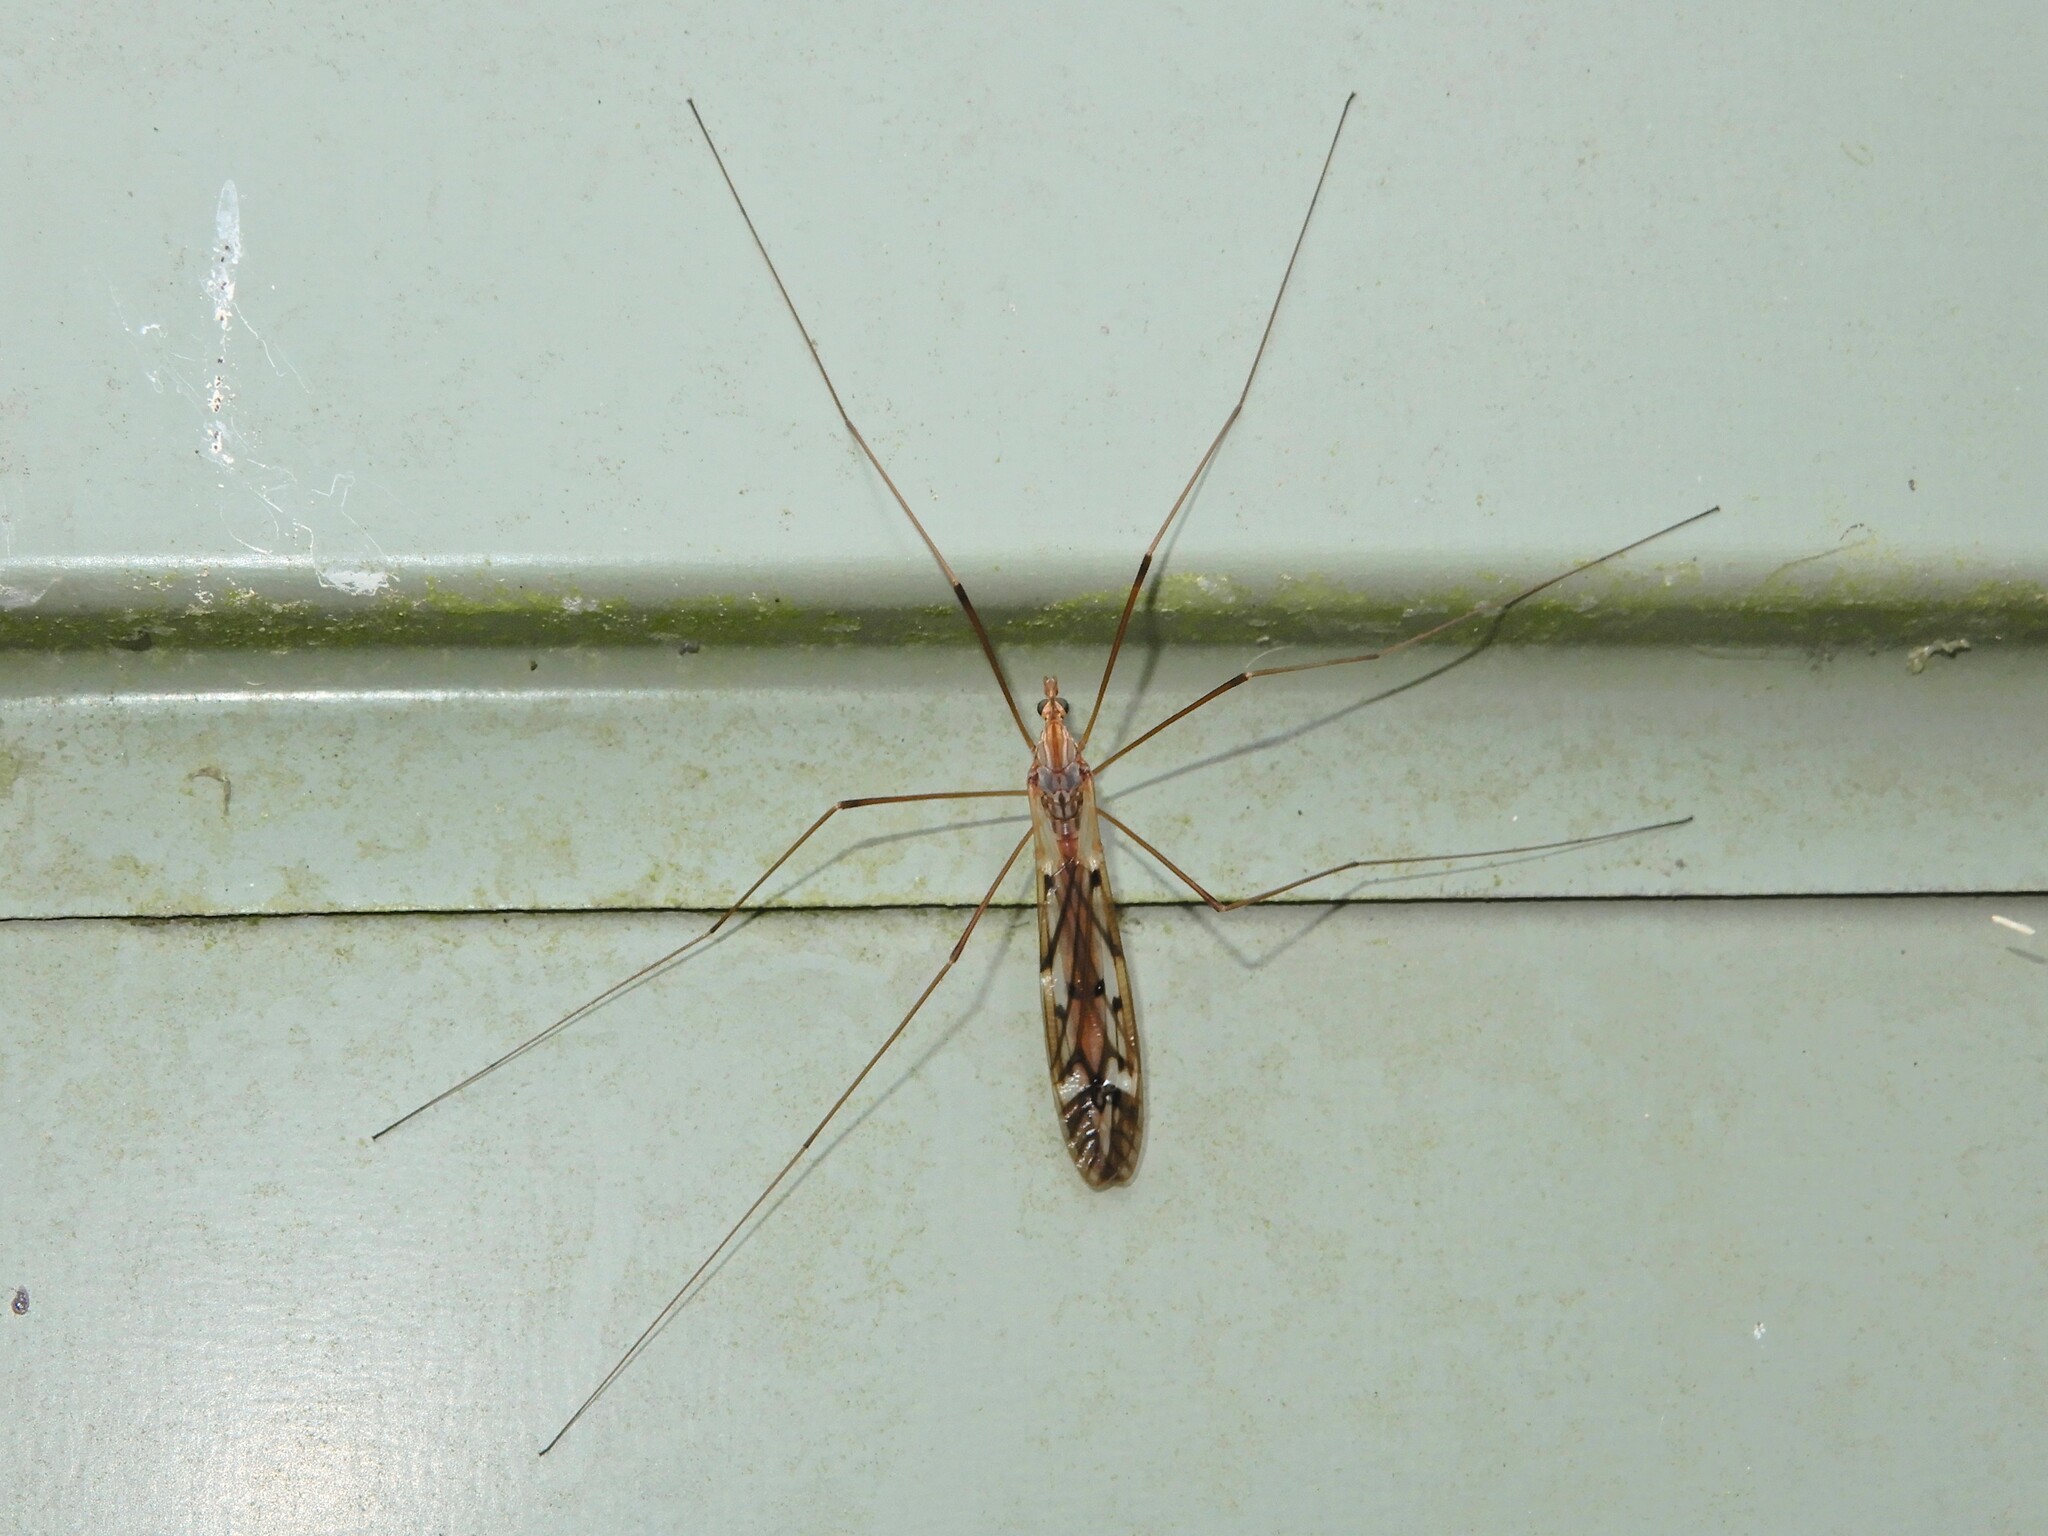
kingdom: Animalia
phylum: Arthropoda
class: Insecta
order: Diptera
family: Tipulidae
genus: Zelandotipula
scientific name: Zelandotipula novarae
